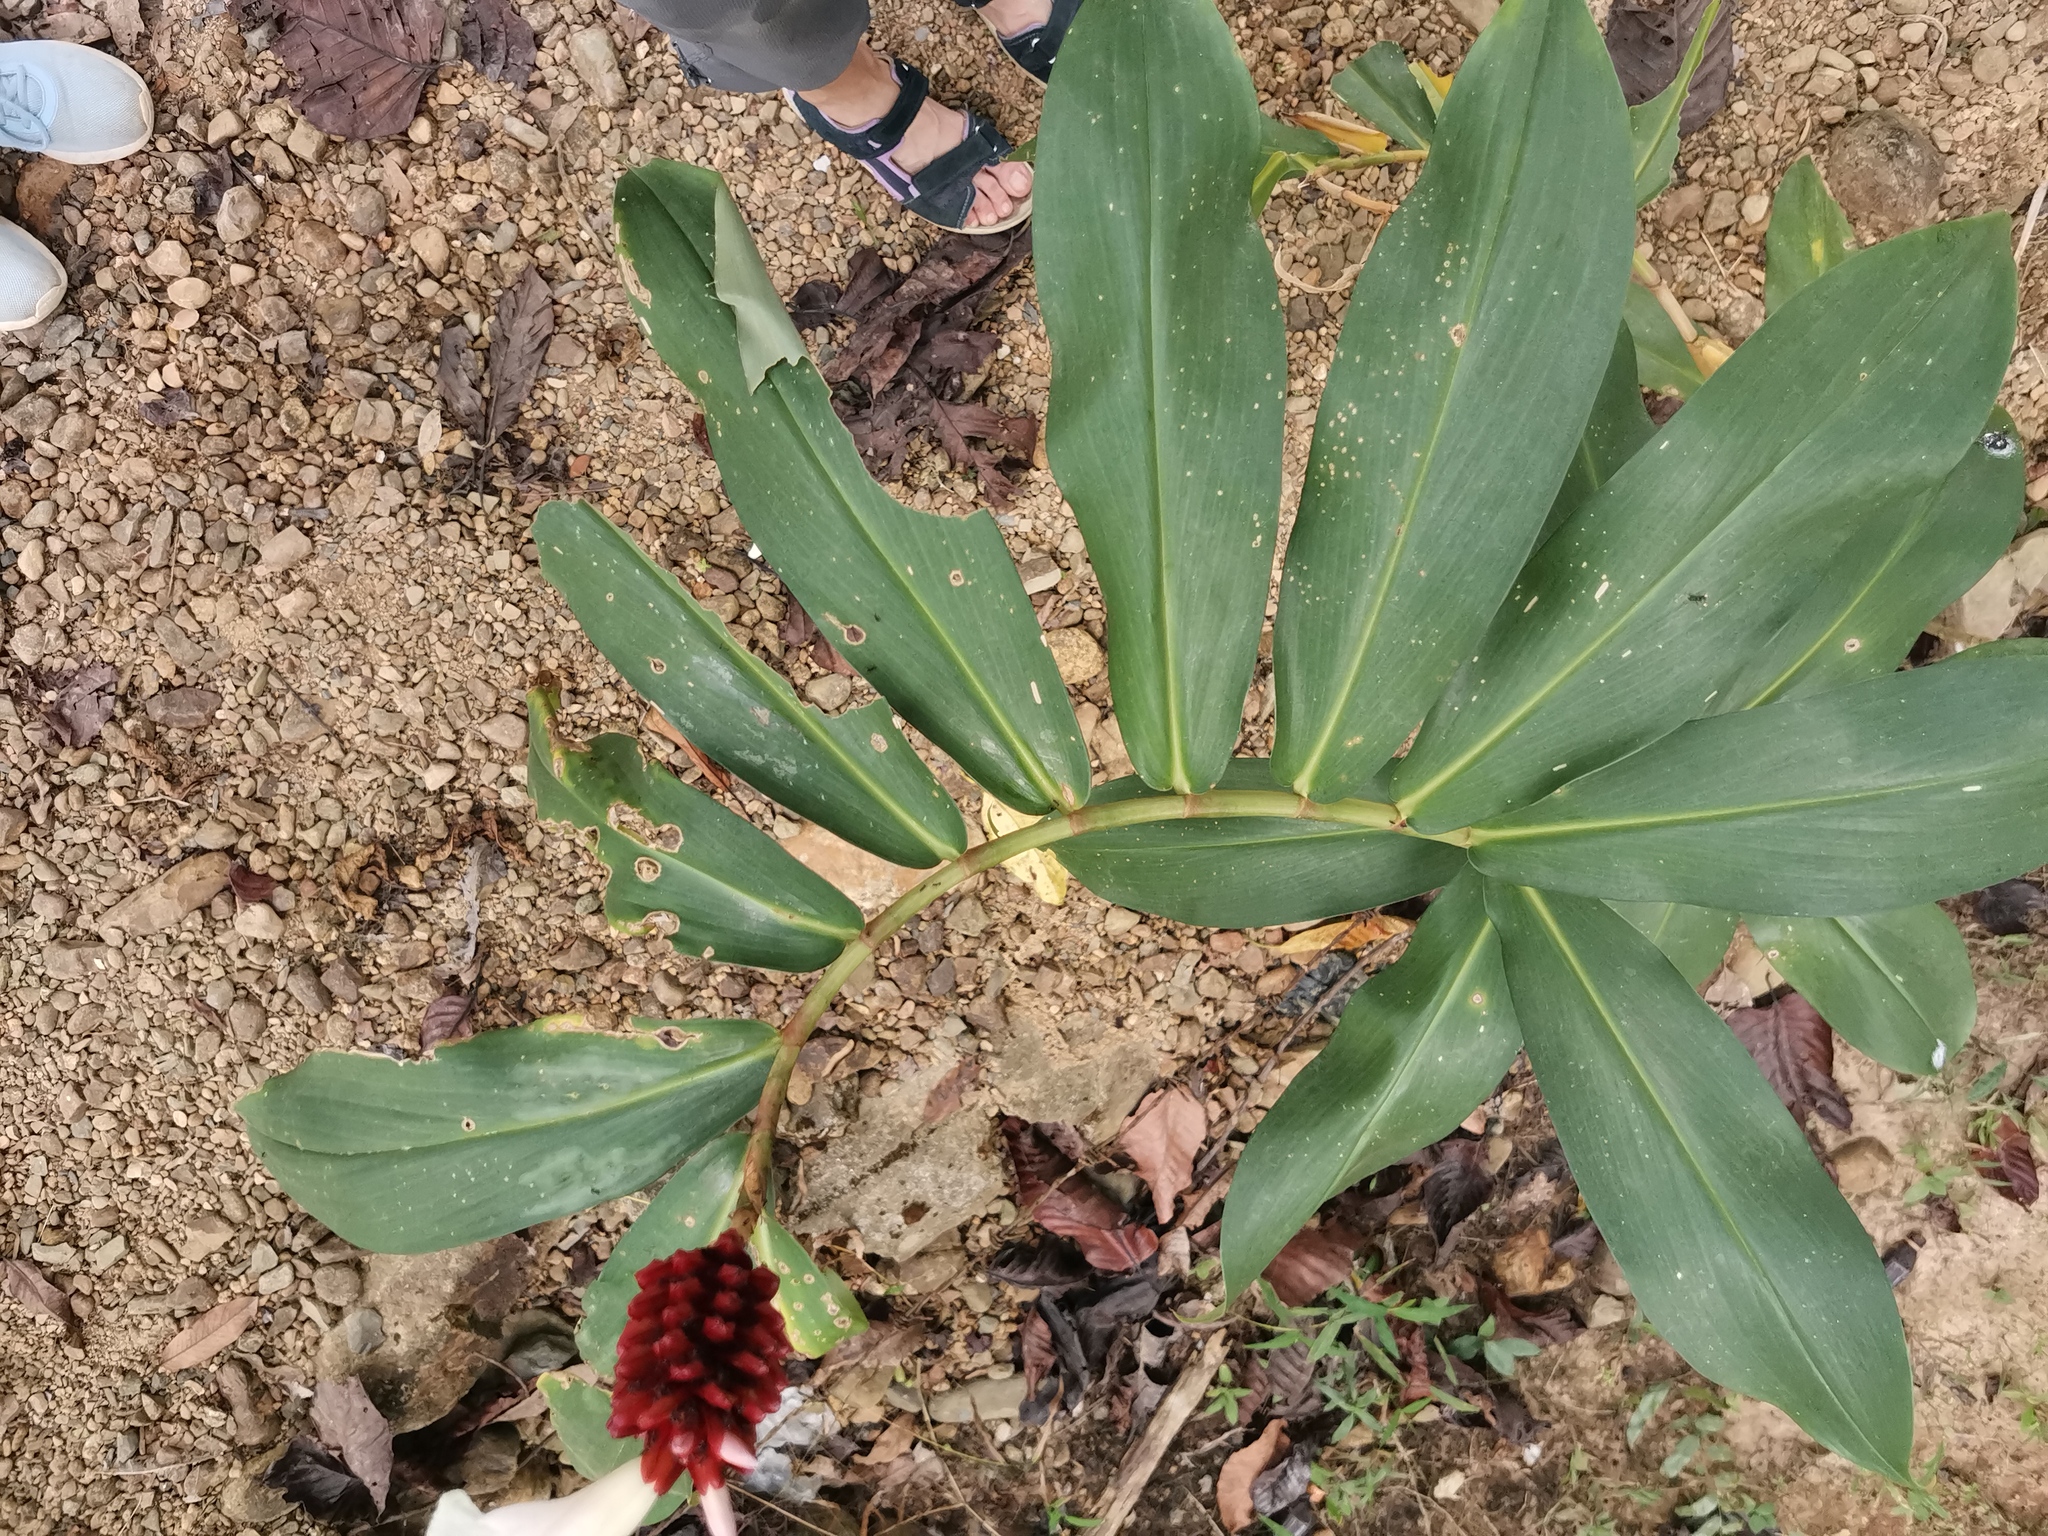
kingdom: Plantae
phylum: Tracheophyta
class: Liliopsida
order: Zingiberales
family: Costaceae
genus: Hellenia
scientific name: Hellenia speciosa
